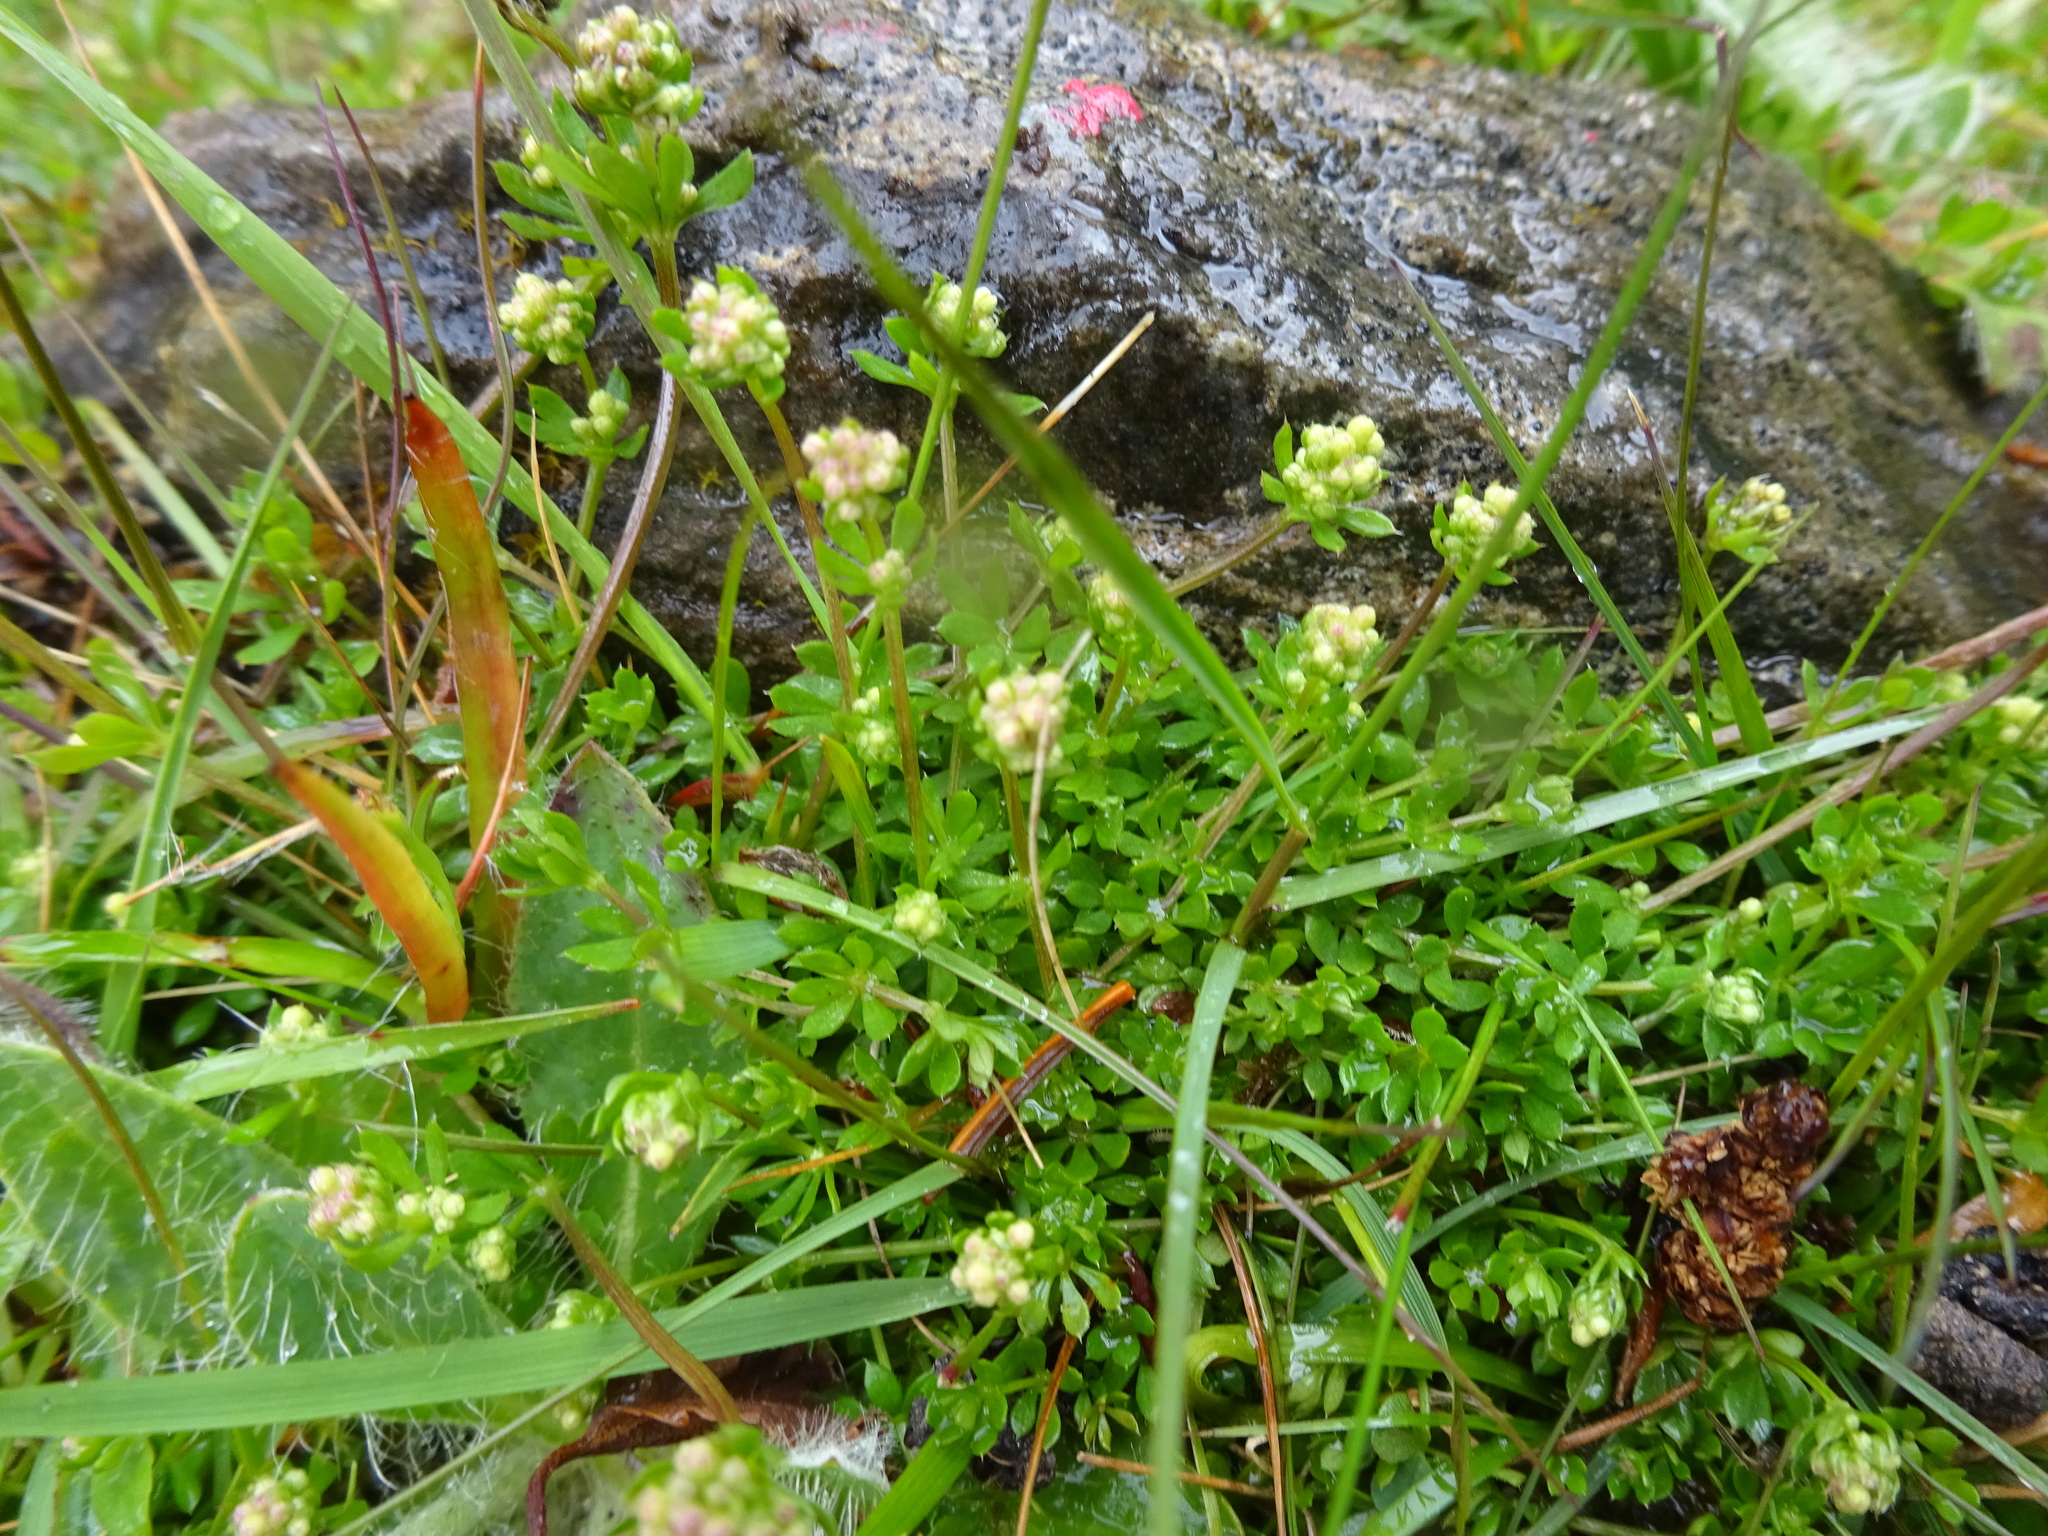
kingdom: Plantae
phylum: Tracheophyta
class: Magnoliopsida
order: Gentianales
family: Rubiaceae
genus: Galium
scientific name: Galium saxatile
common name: Heath bedstraw
